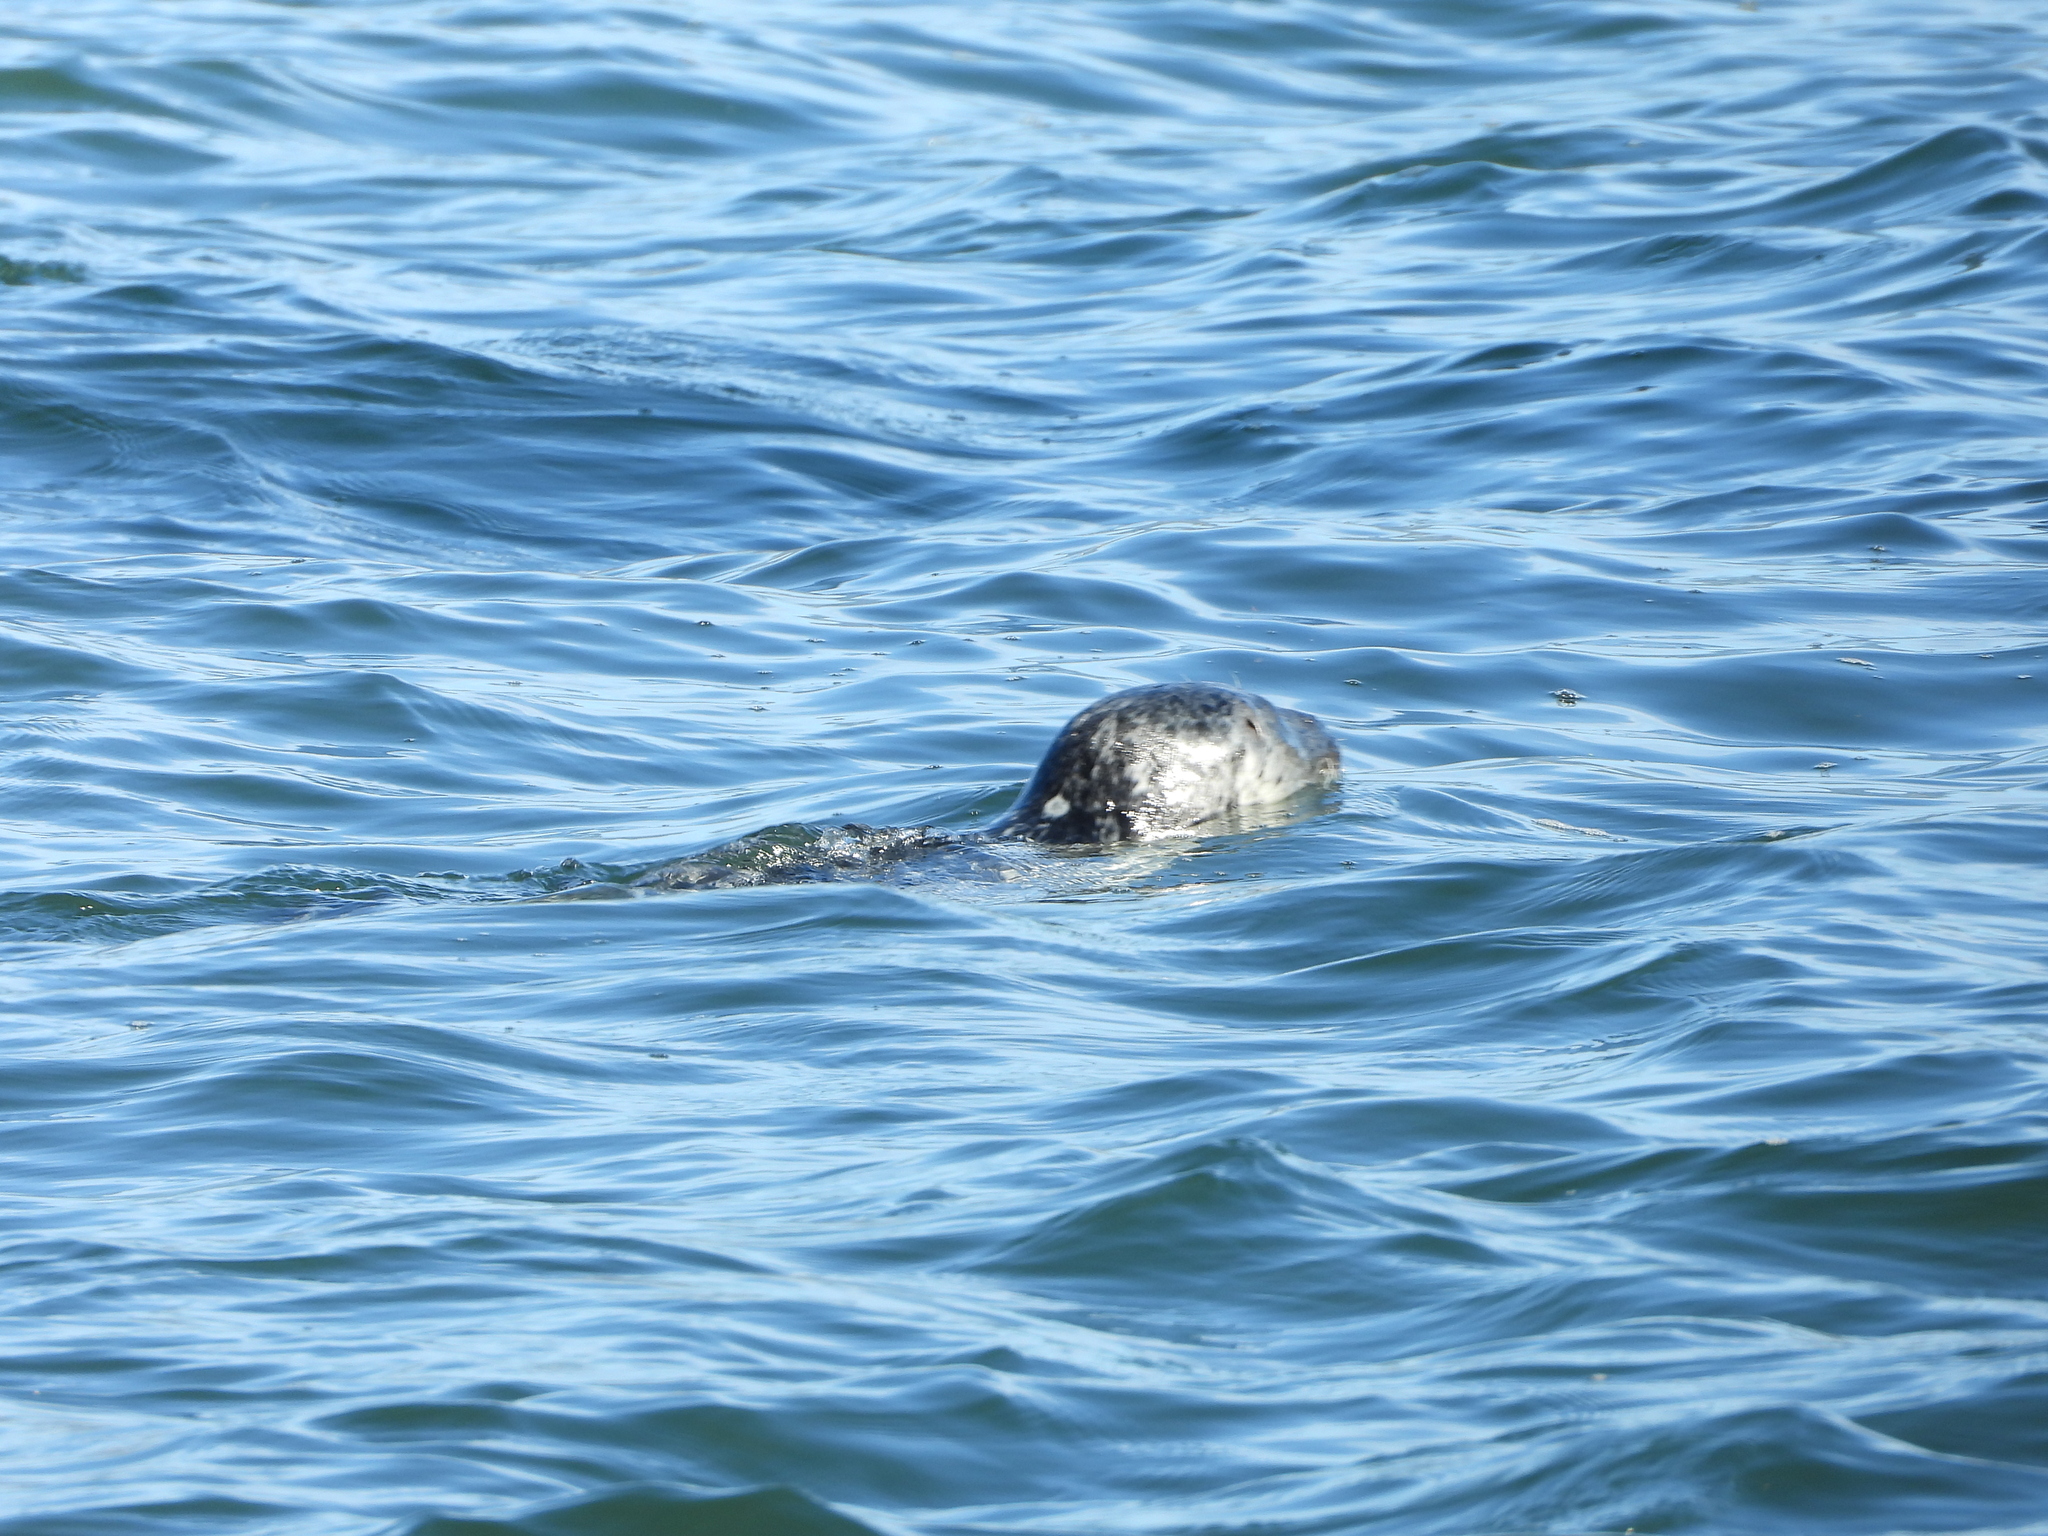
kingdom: Animalia
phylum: Chordata
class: Mammalia
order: Carnivora
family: Phocidae
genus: Phoca
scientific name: Phoca vitulina
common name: Harbor seal
